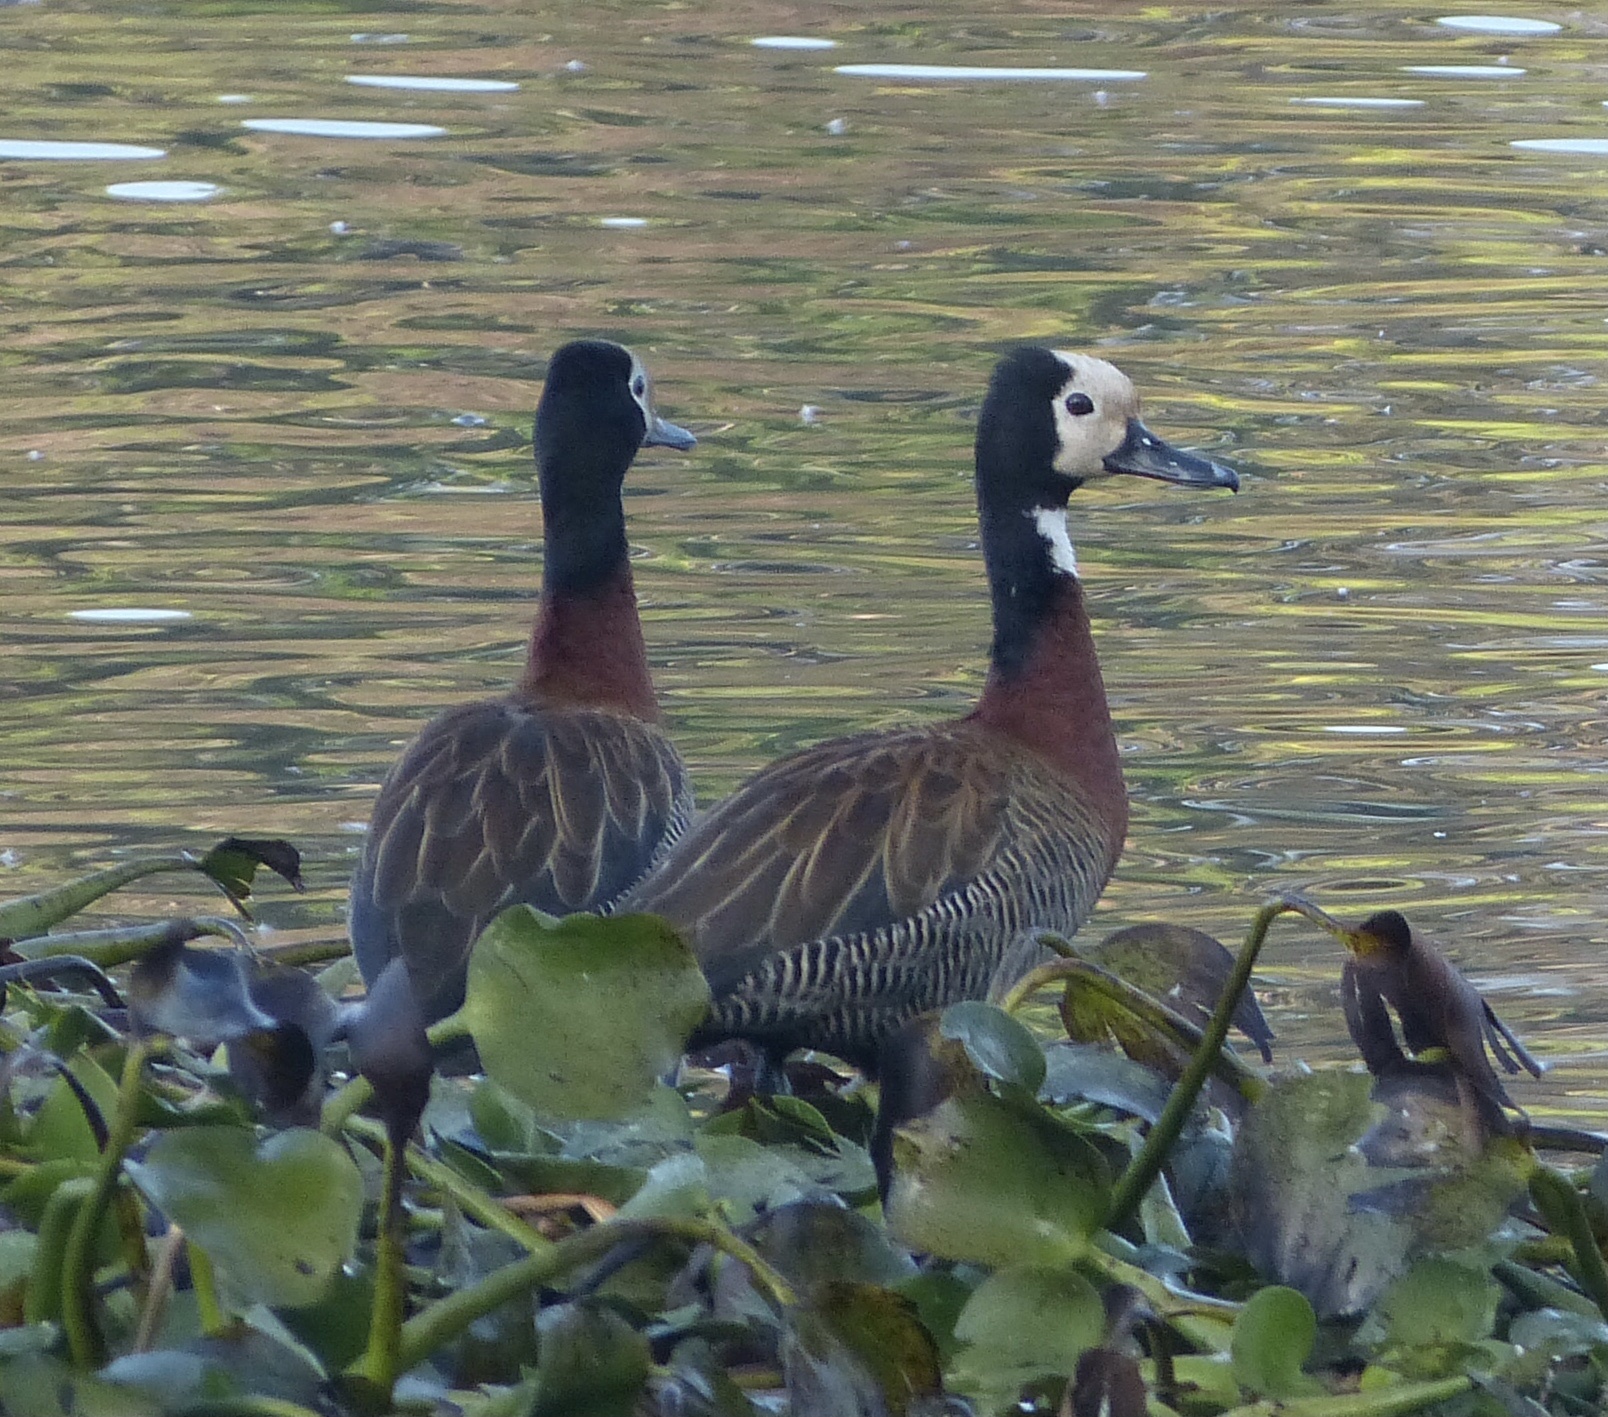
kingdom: Animalia
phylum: Chordata
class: Aves
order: Anseriformes
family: Anatidae
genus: Dendrocygna
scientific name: Dendrocygna viduata
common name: White-faced whistling duck
